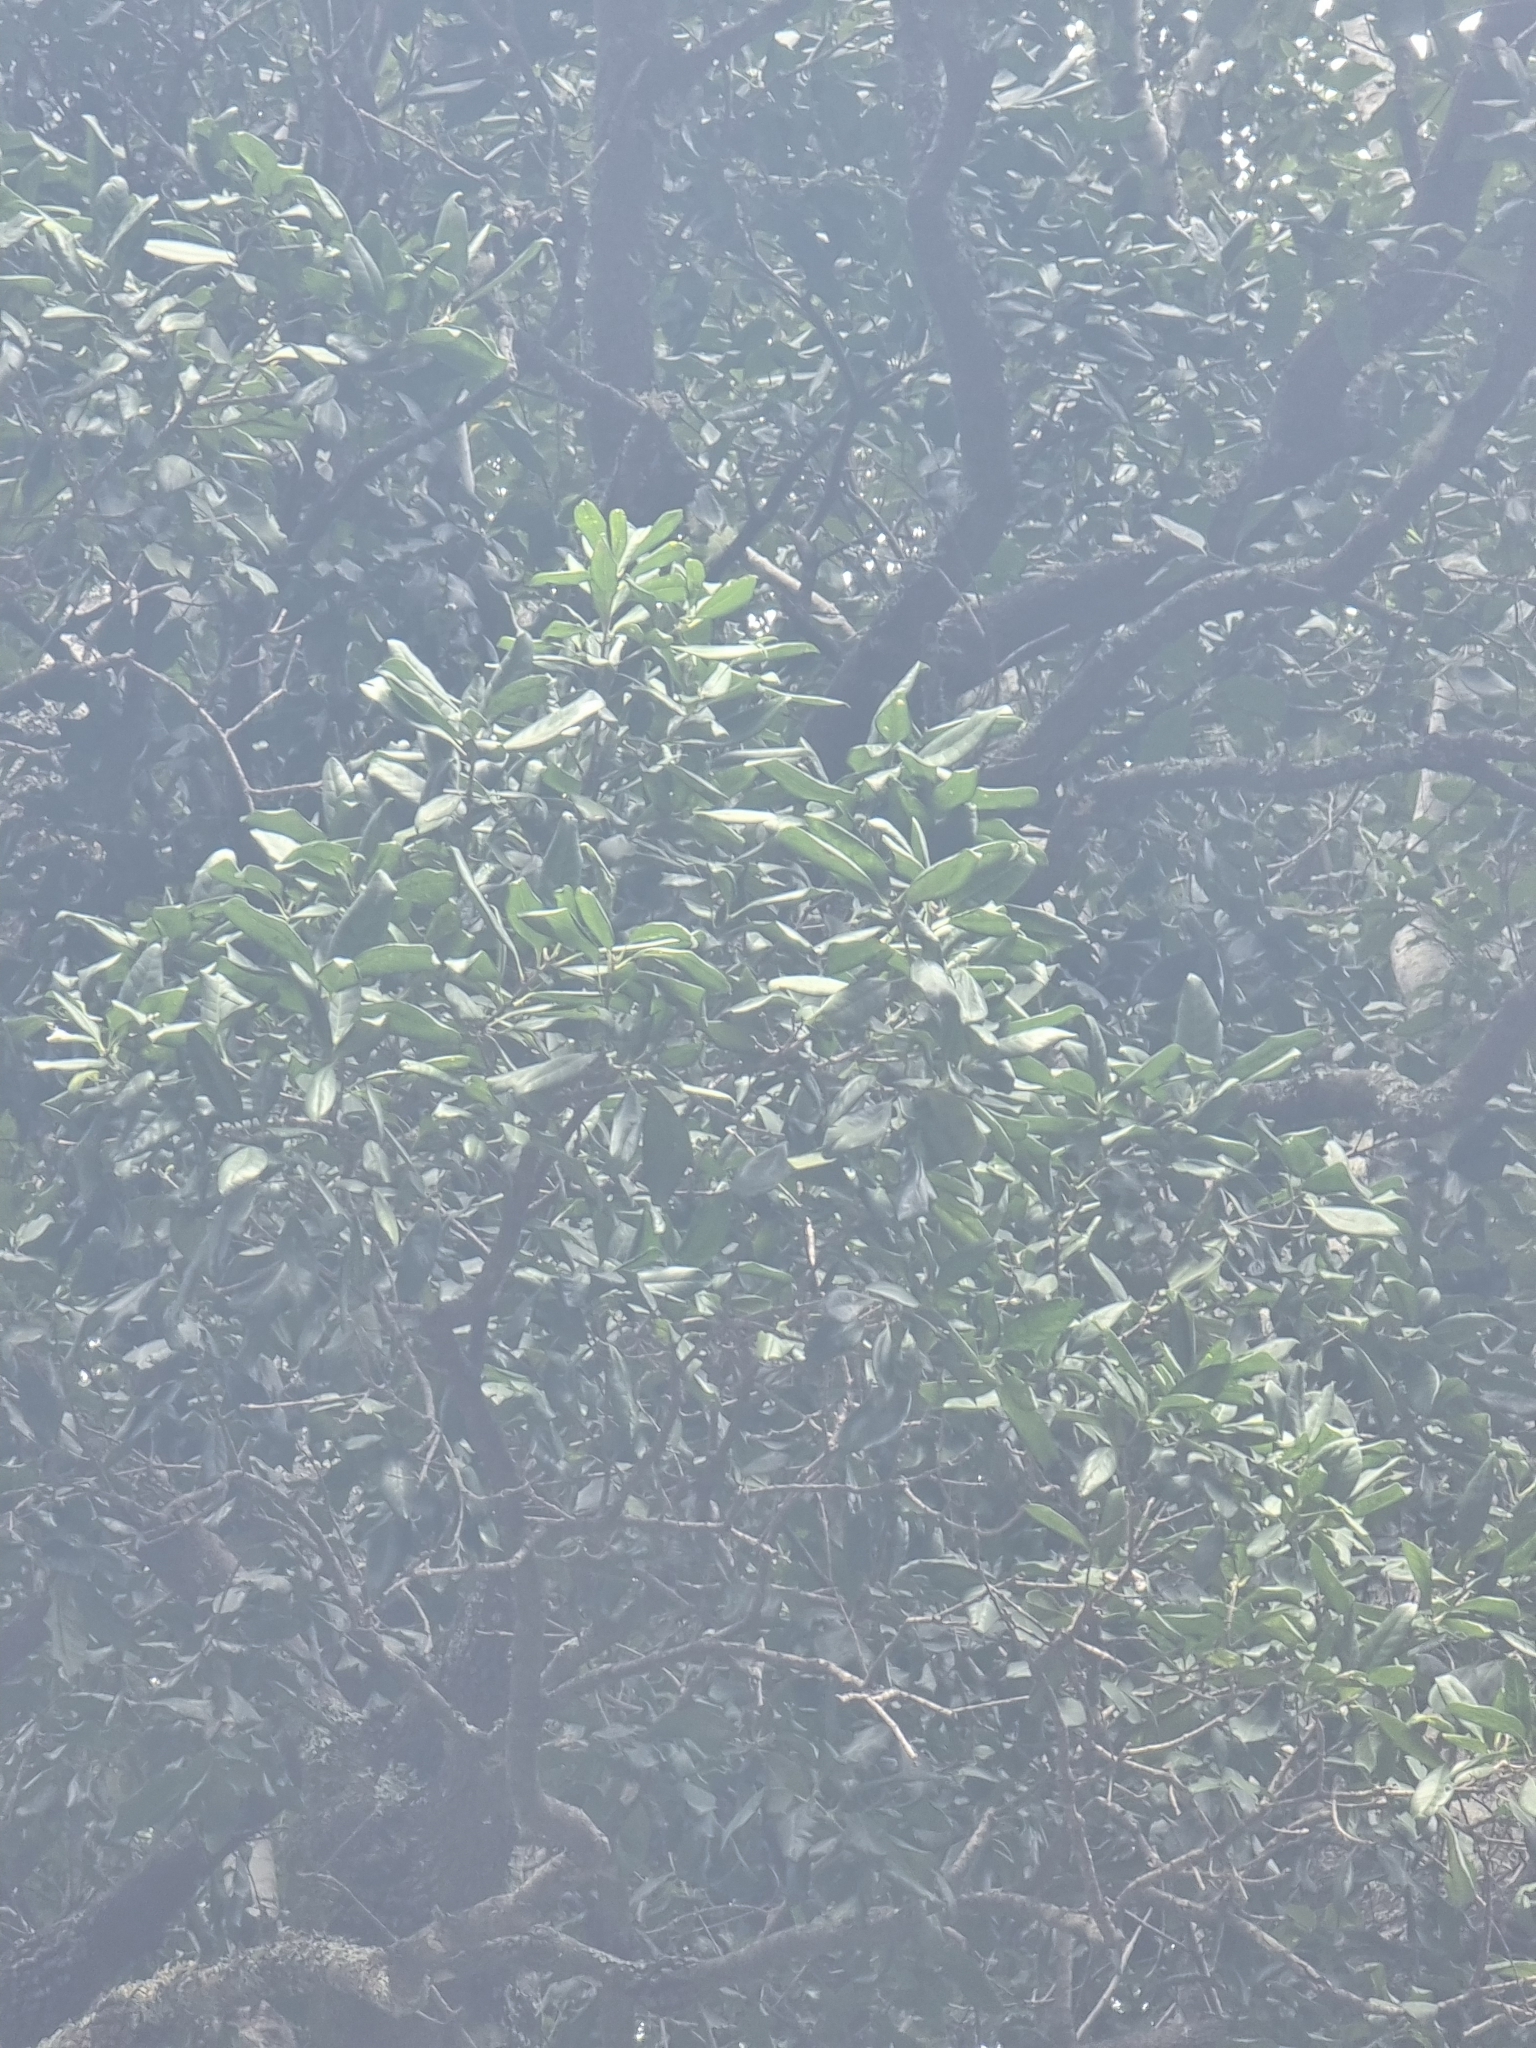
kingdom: Plantae
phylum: Tracheophyta
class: Magnoliopsida
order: Lamiales
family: Oleaceae
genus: Picconia
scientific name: Picconia excelsa
